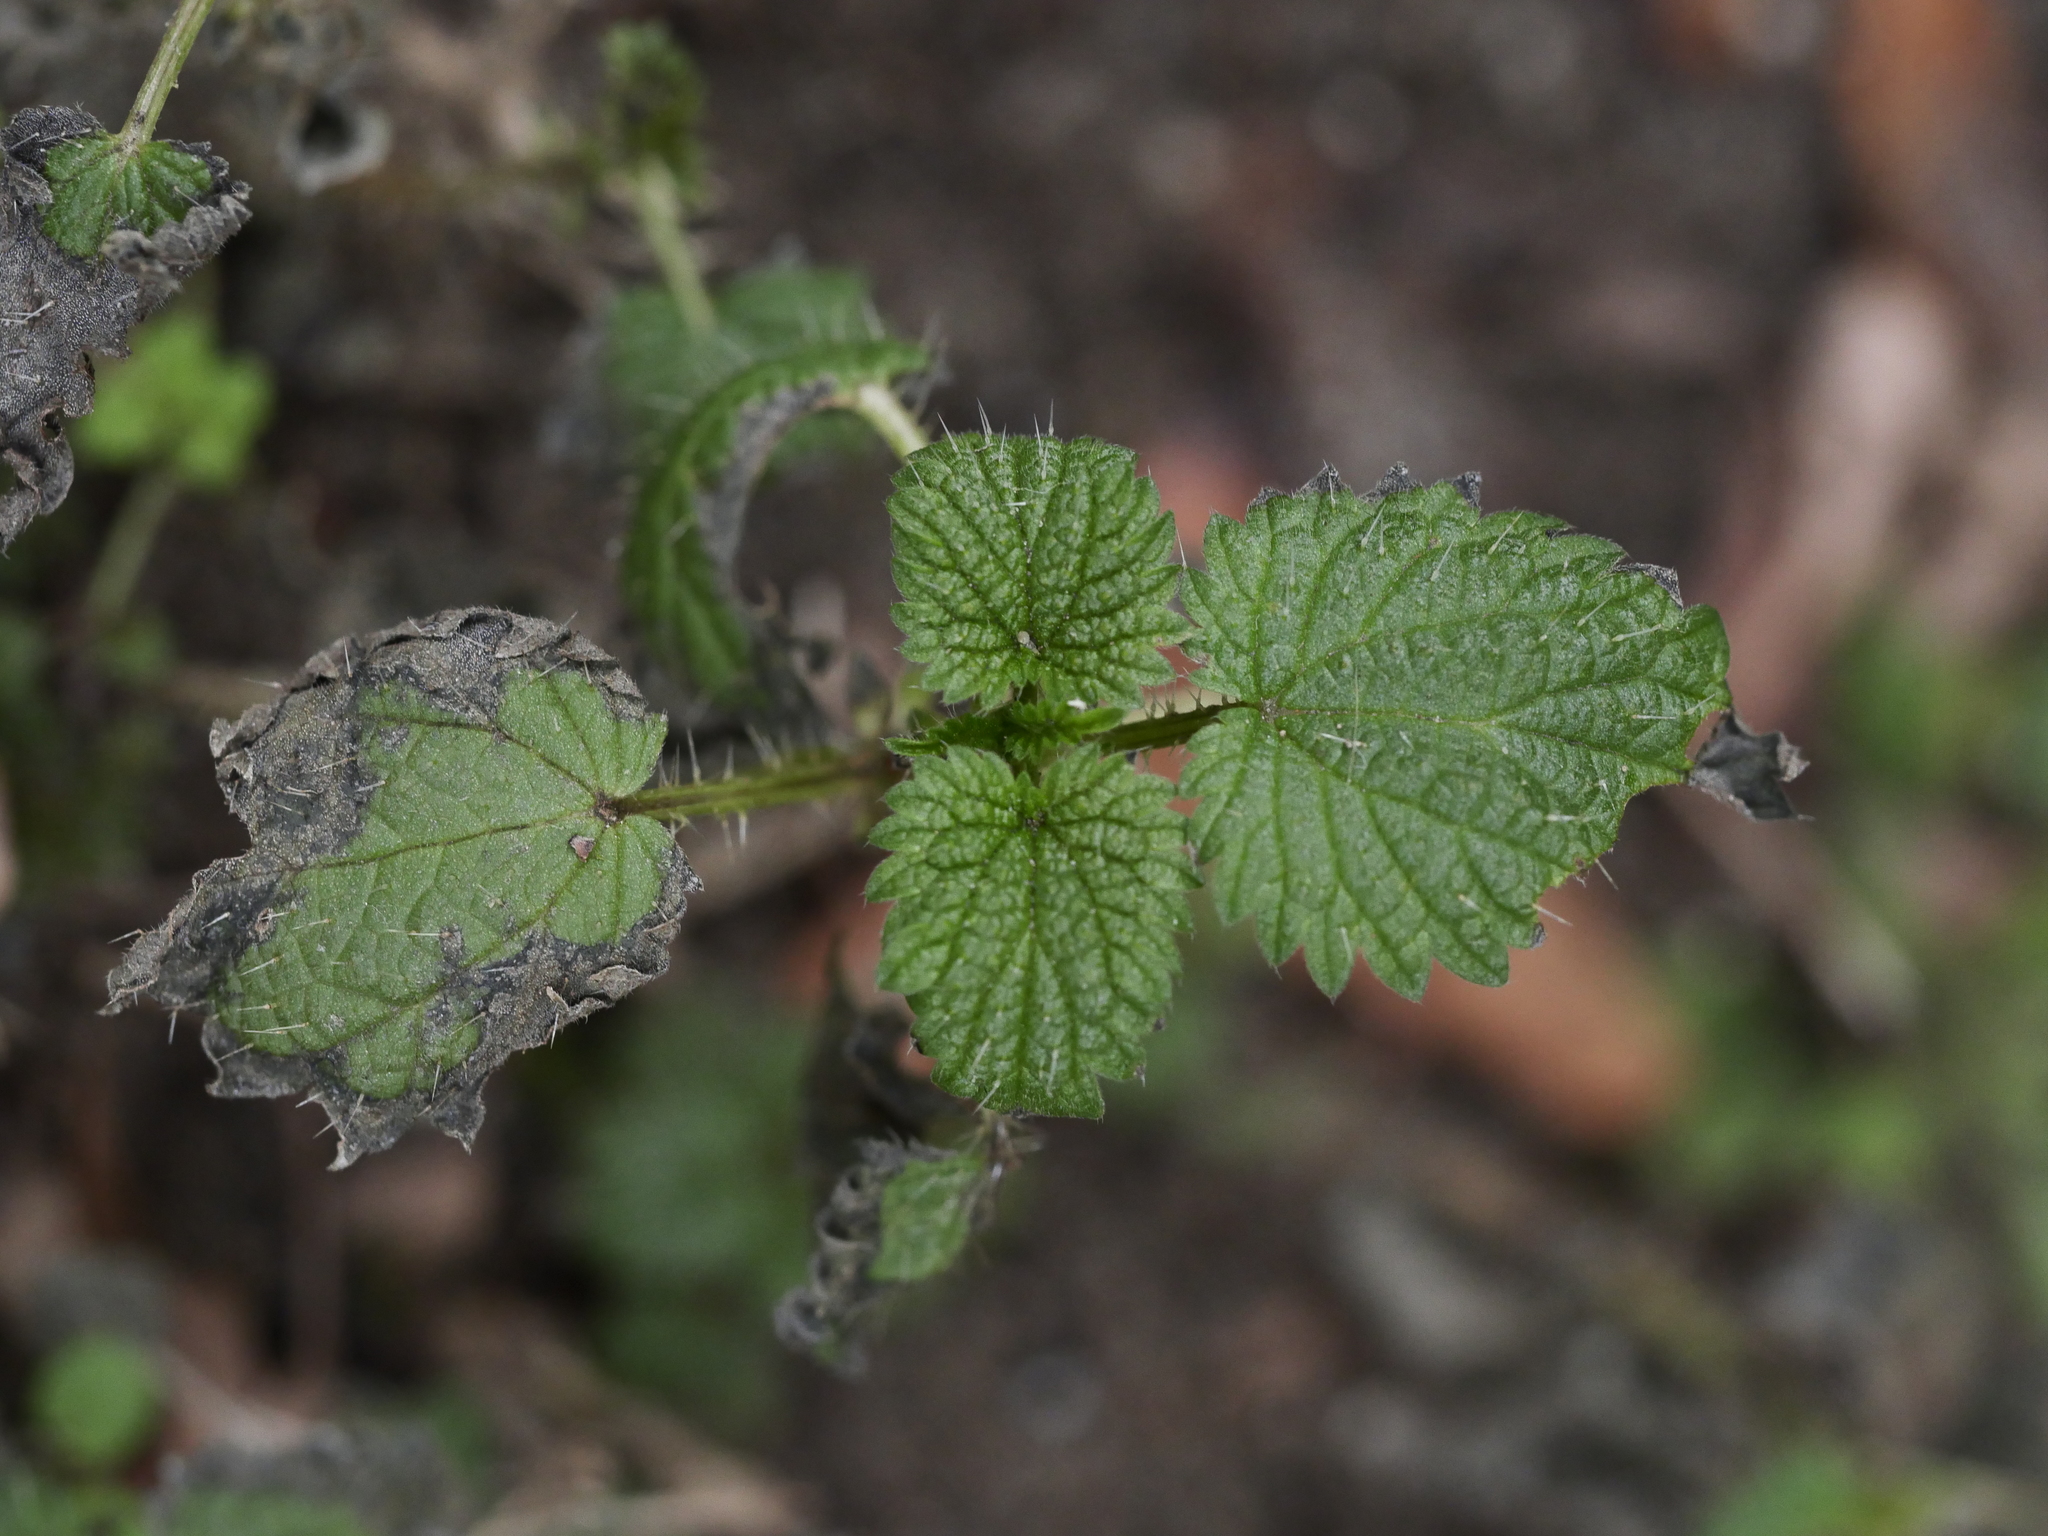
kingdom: Plantae
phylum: Tracheophyta
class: Magnoliopsida
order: Rosales
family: Urticaceae
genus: Urtica
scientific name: Urtica dioica
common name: Common nettle
